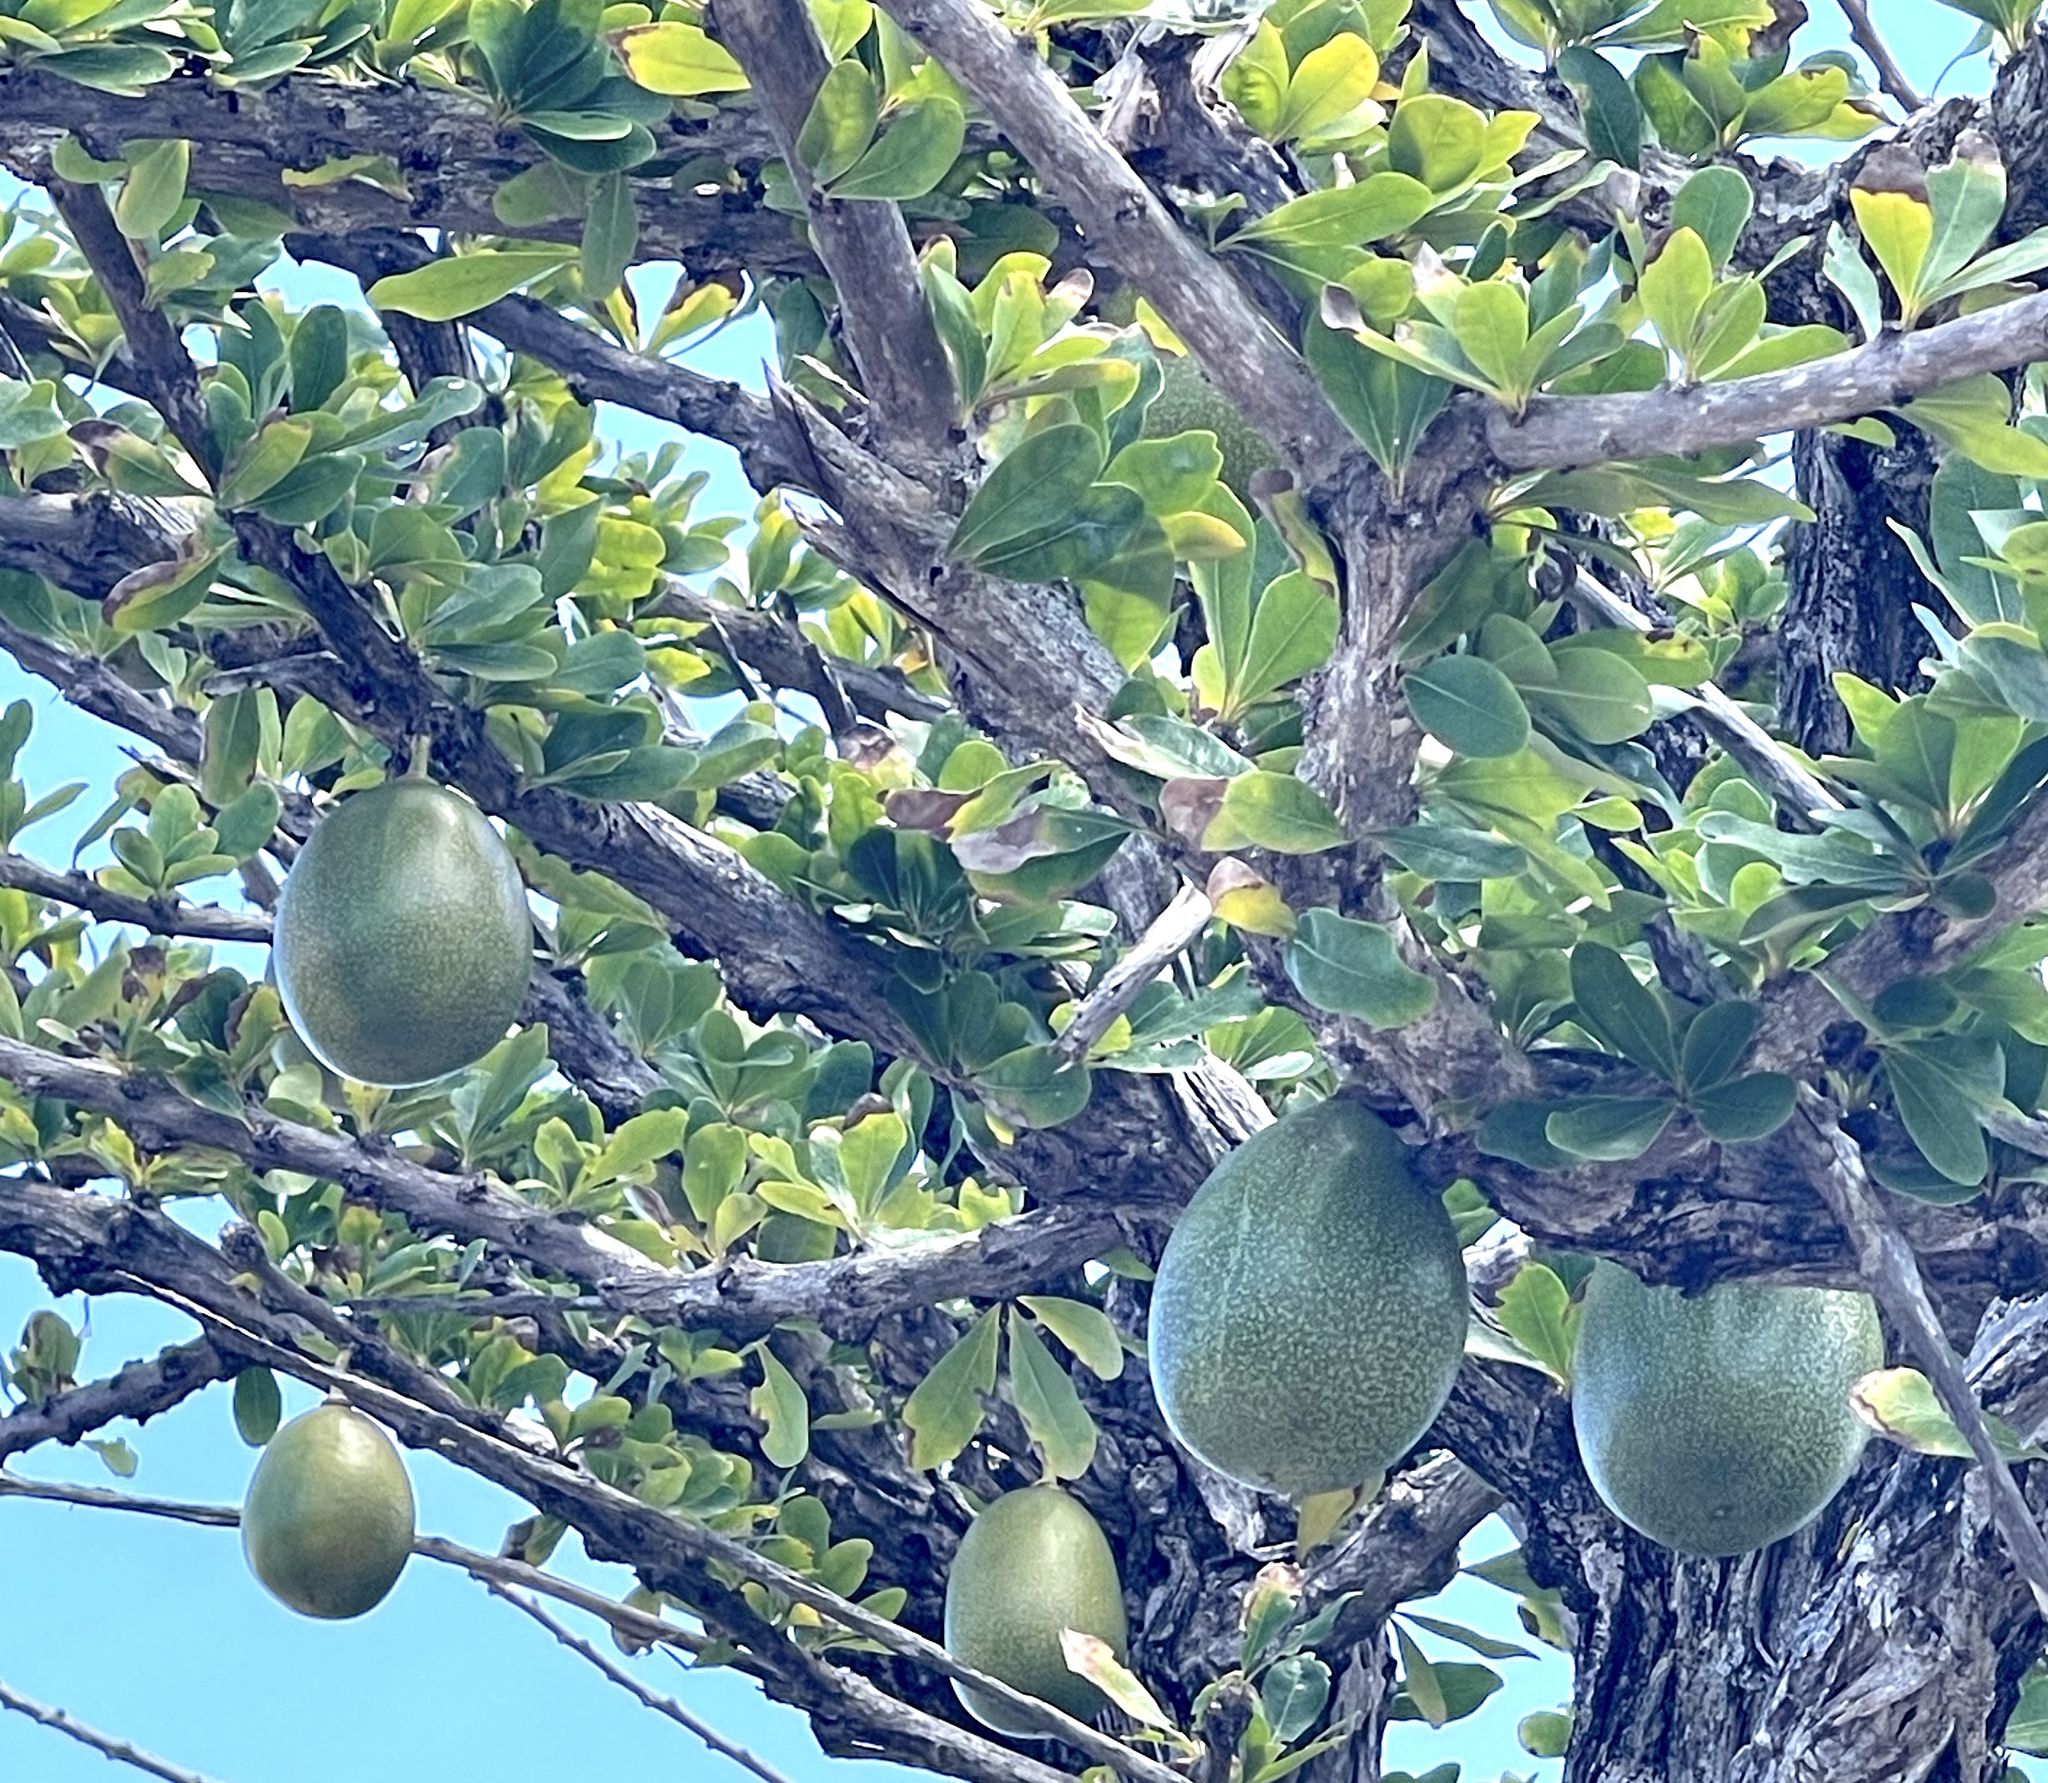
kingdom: Plantae
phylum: Tracheophyta
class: Magnoliopsida
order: Lamiales
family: Bignoniaceae
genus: Crescentia
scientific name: Crescentia cujete
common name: Calabash
